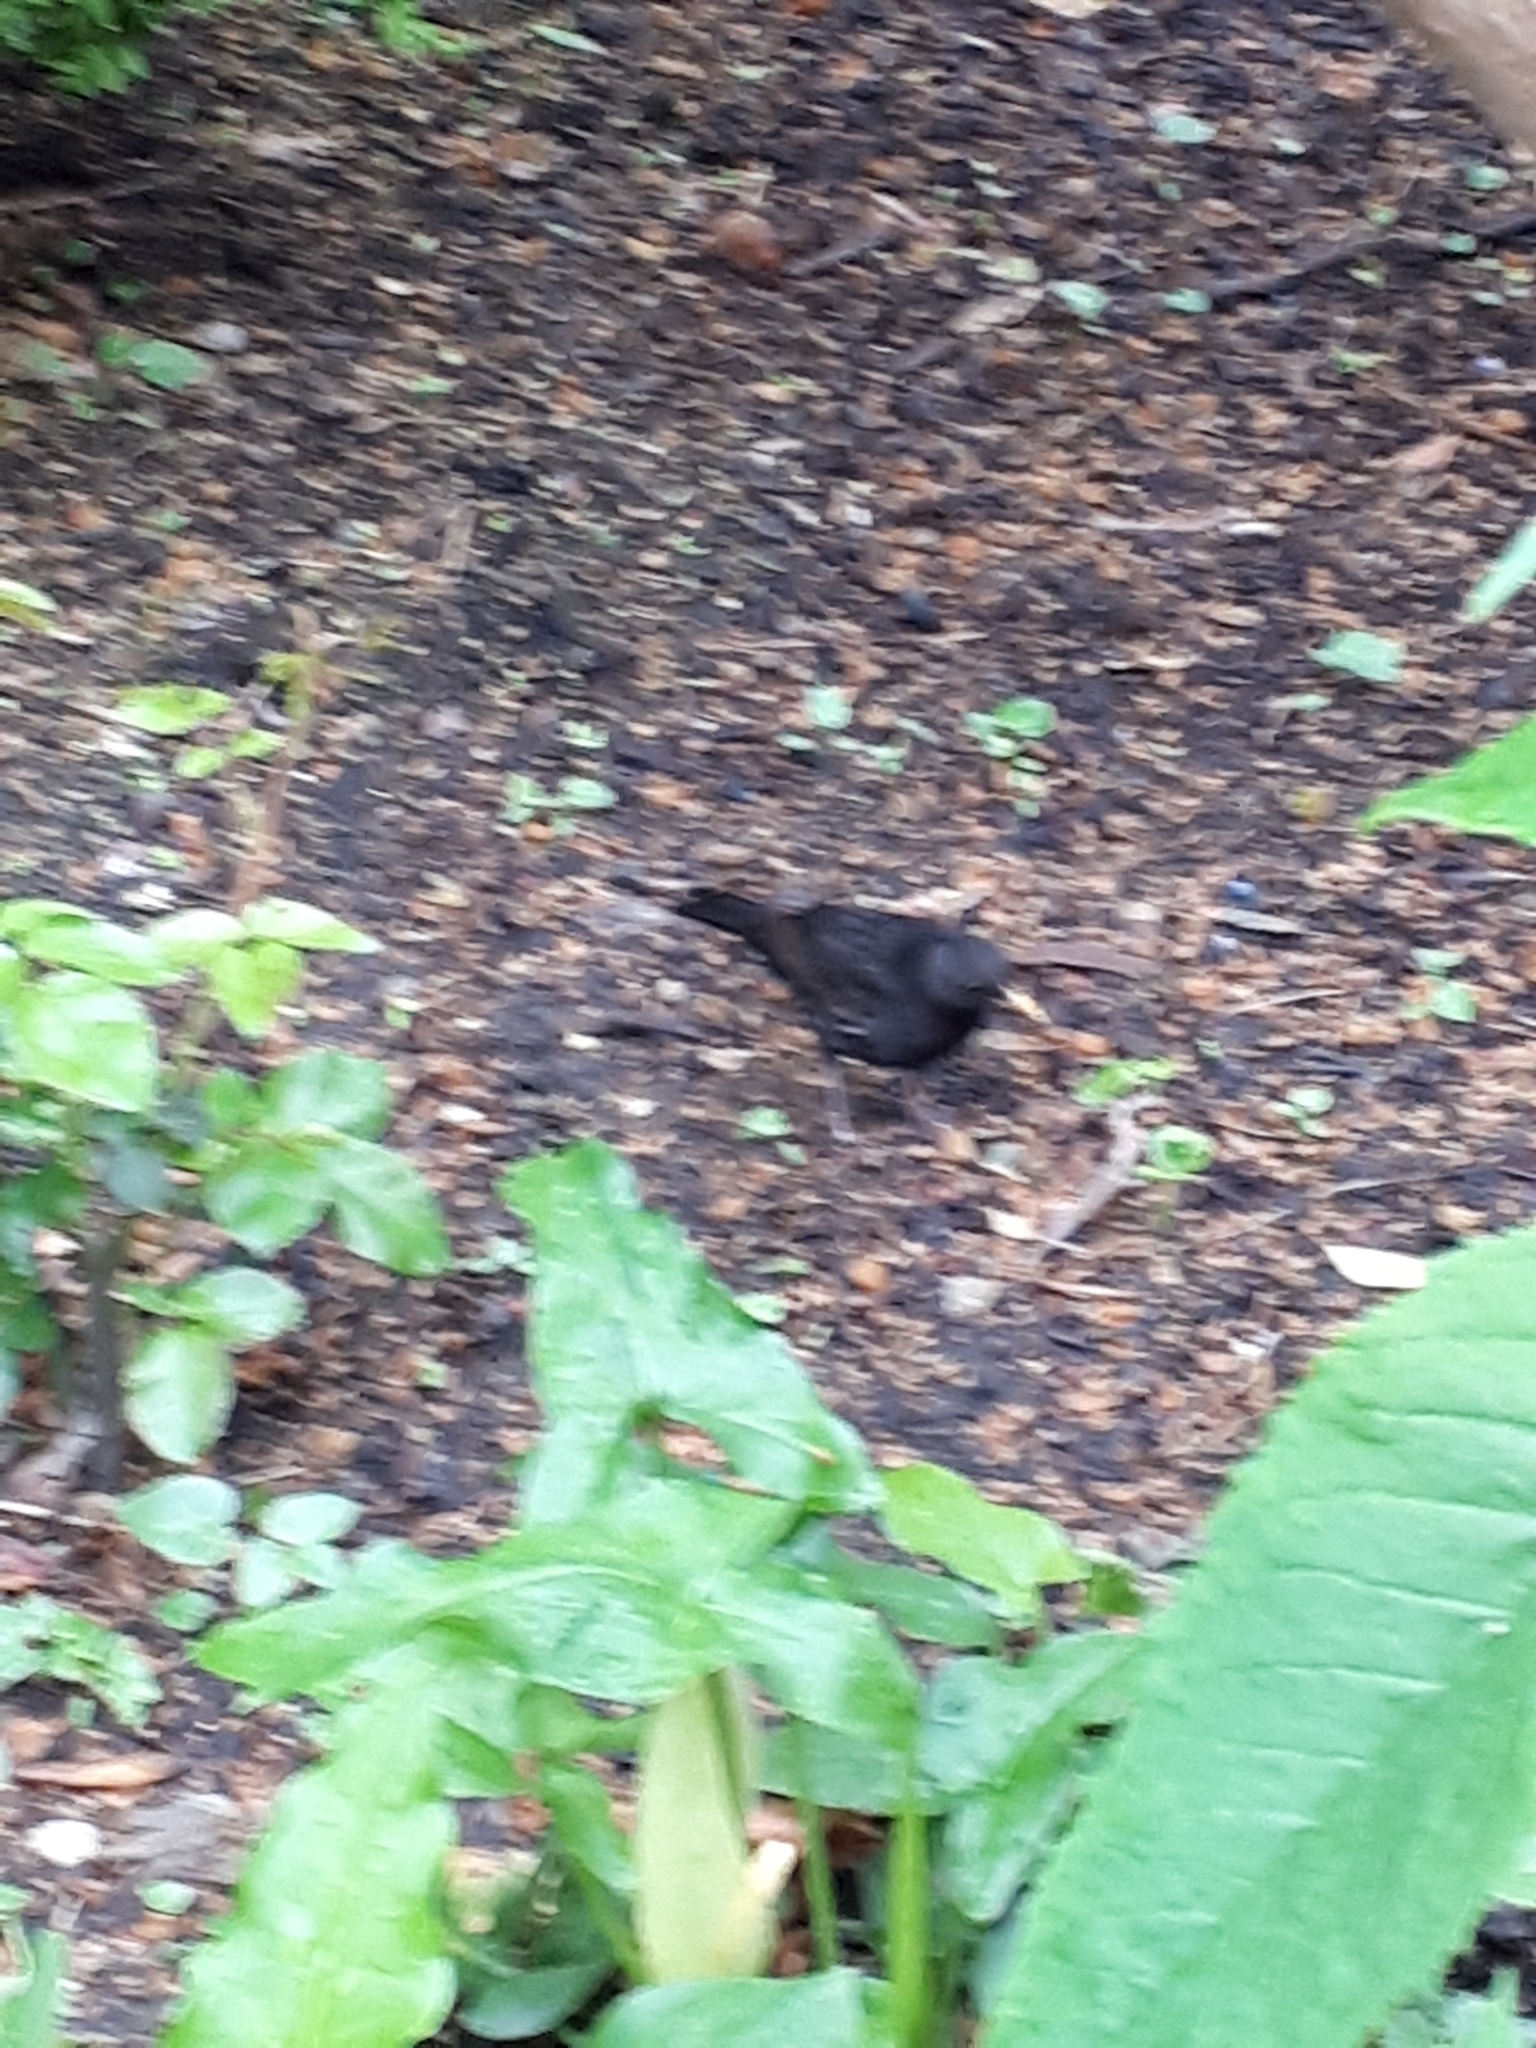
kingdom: Animalia
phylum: Chordata
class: Aves
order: Passeriformes
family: Turdidae
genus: Turdus
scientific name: Turdus merula
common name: Common blackbird
